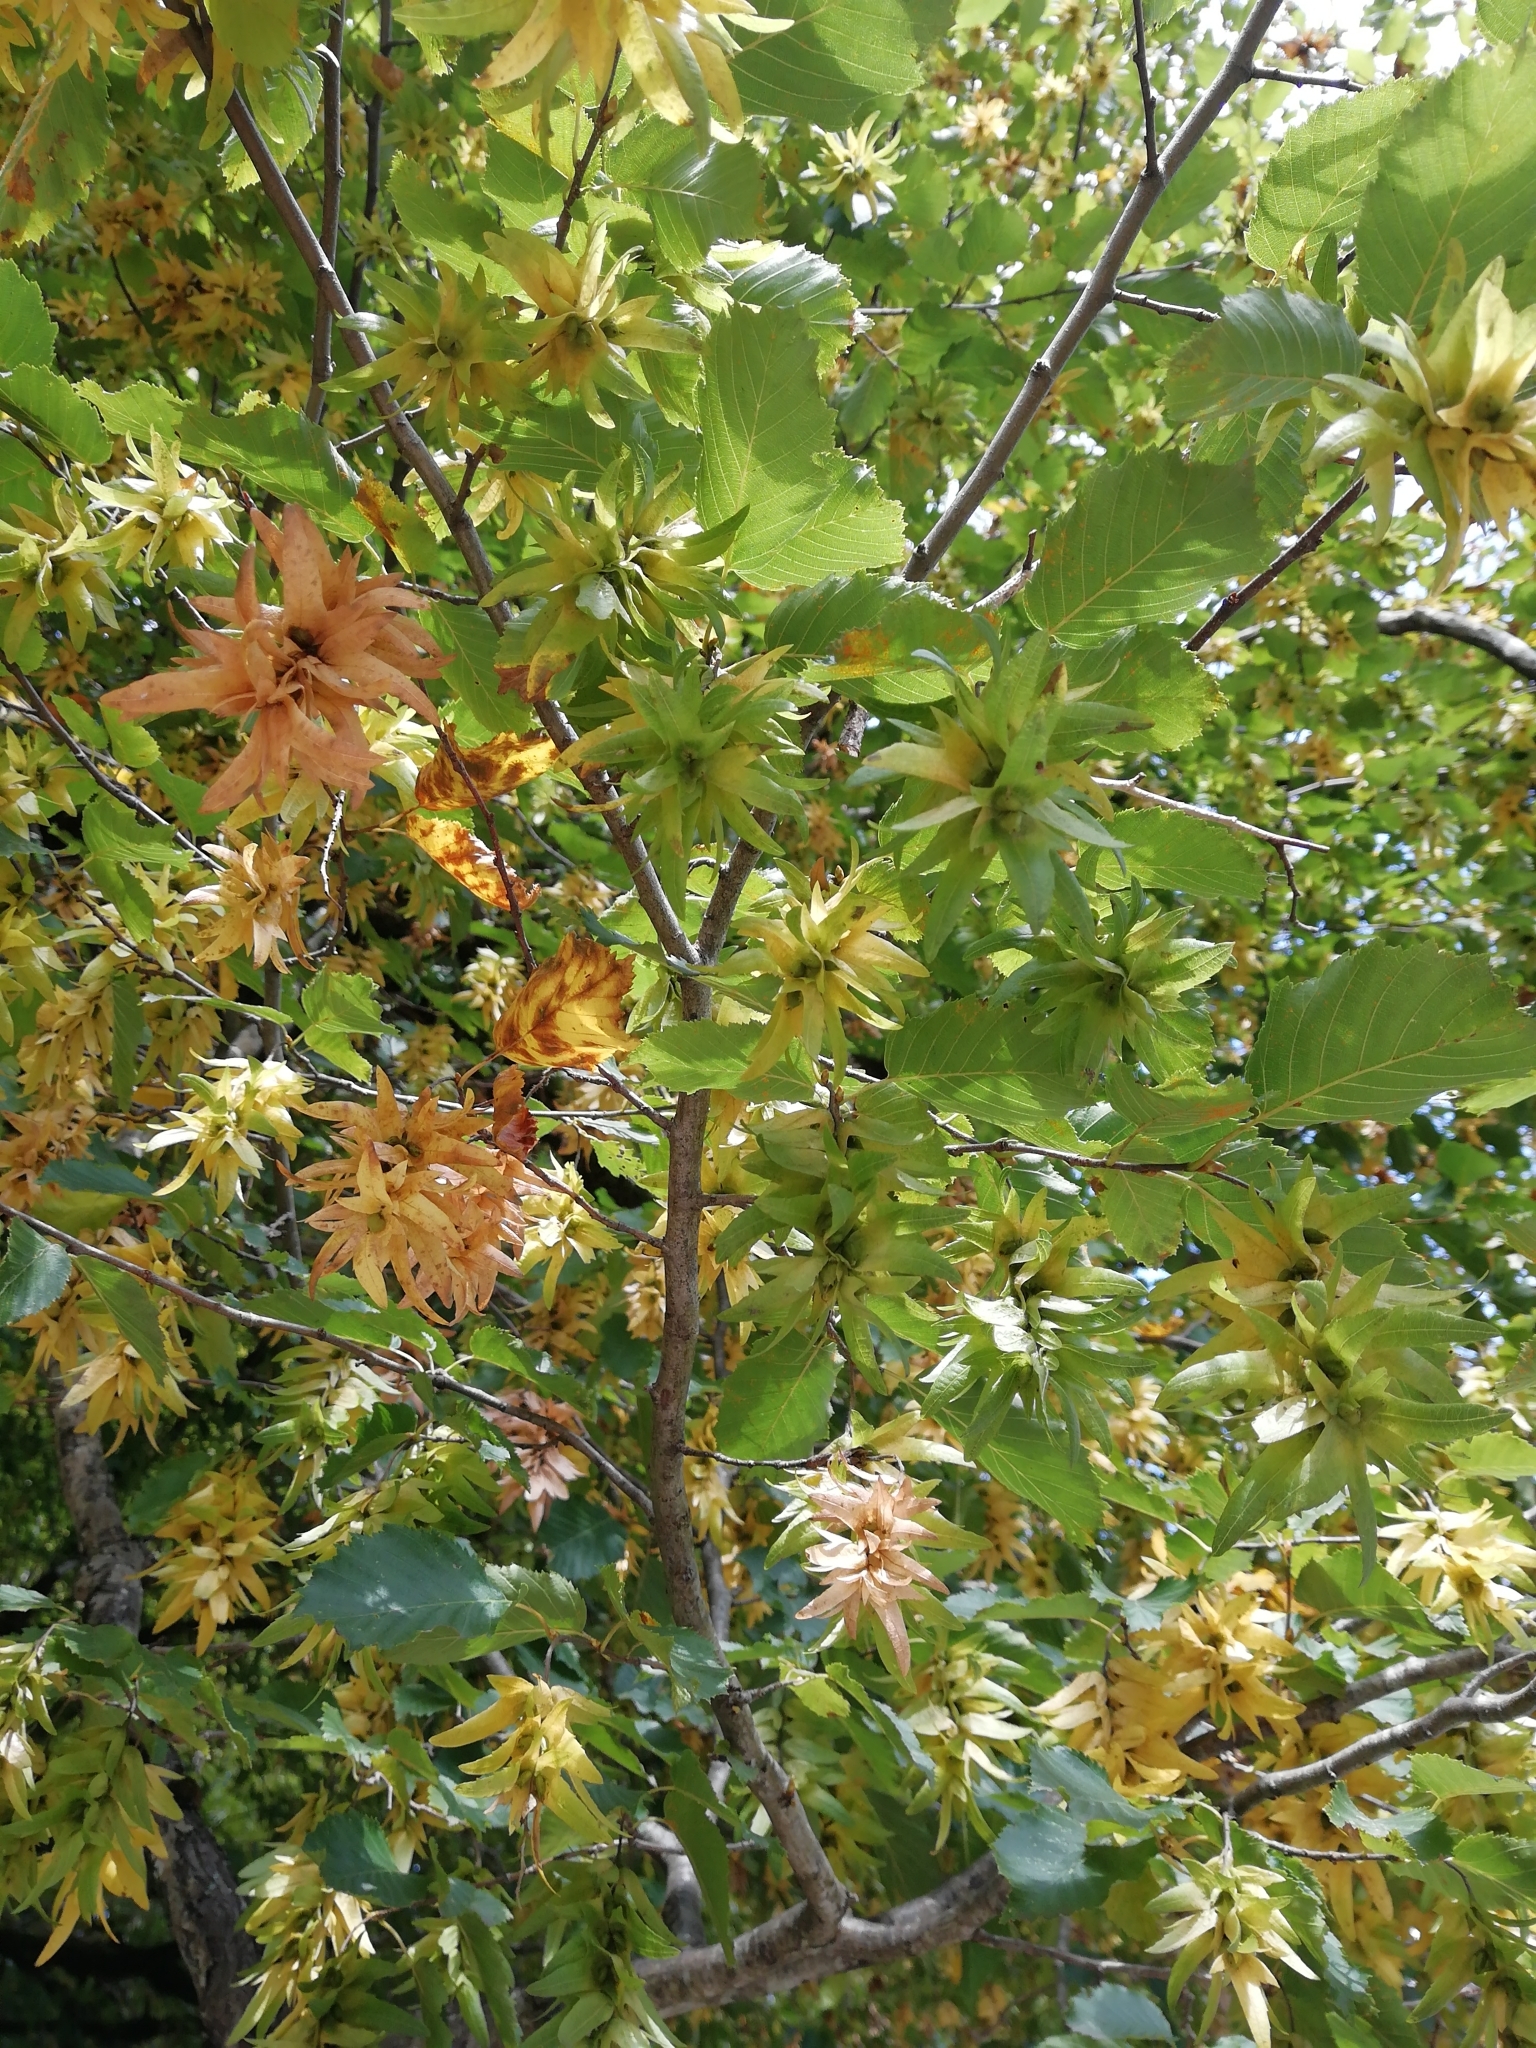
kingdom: Plantae
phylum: Tracheophyta
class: Magnoliopsida
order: Fagales
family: Betulaceae
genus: Carpinus
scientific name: Carpinus betulus
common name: Hornbeam
